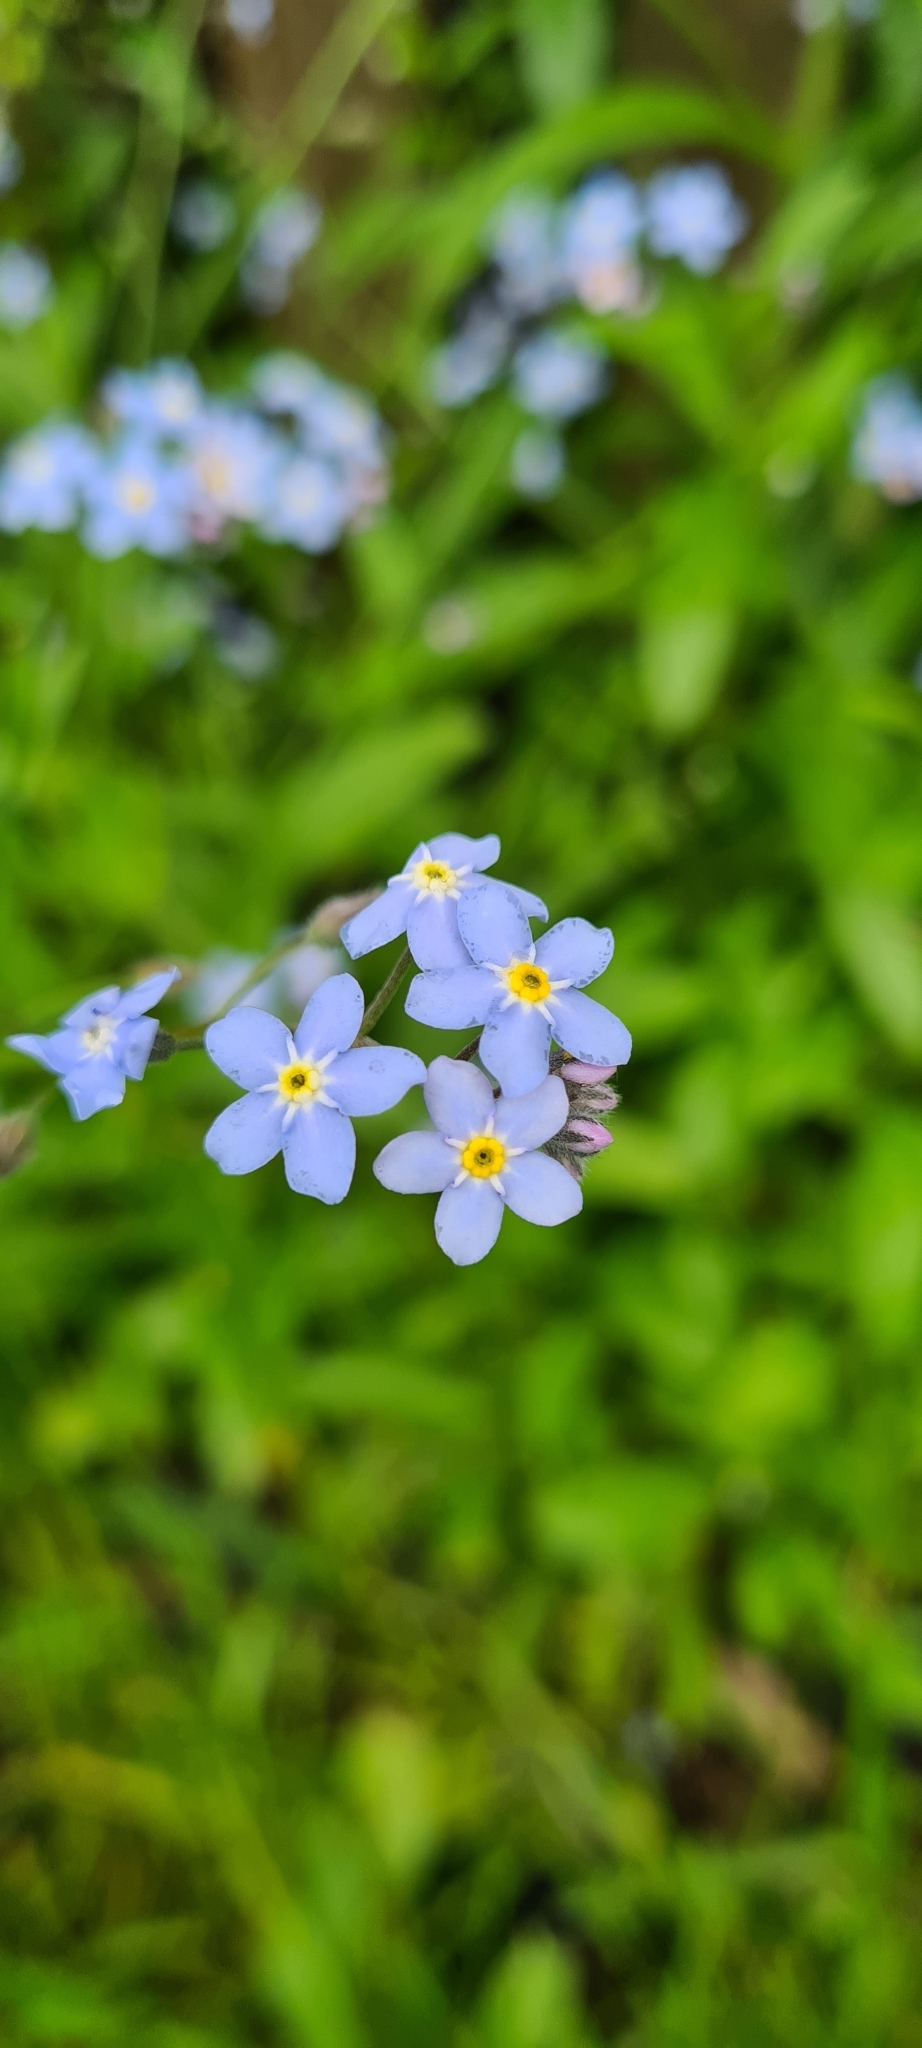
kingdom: Plantae
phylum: Tracheophyta
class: Magnoliopsida
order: Boraginales
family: Boraginaceae
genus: Myosotis
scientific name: Myosotis sylvatica
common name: Wood forget-me-not
